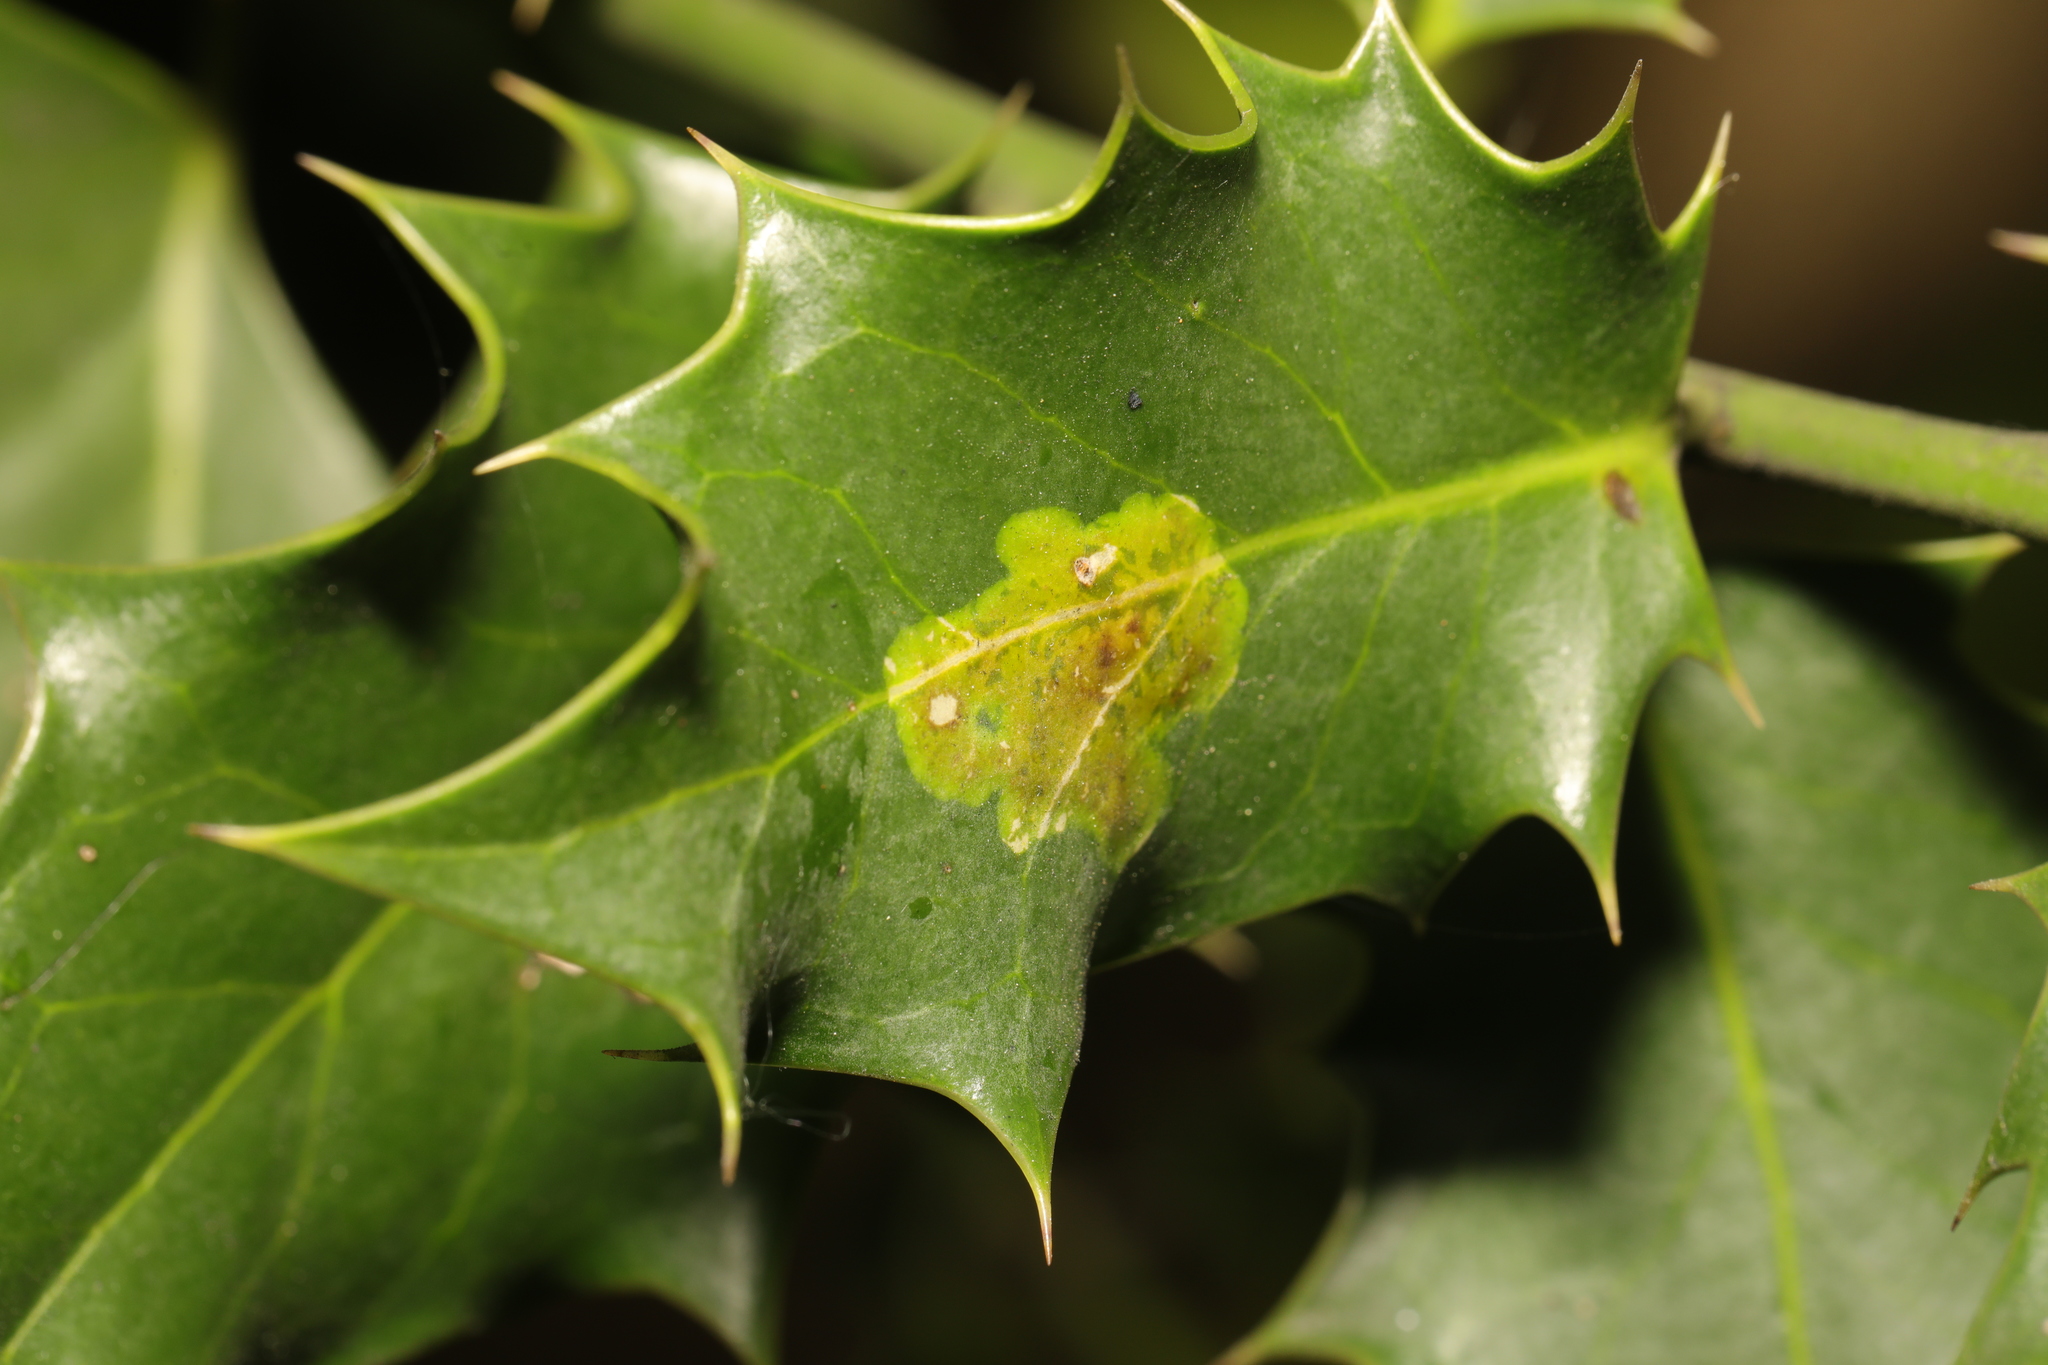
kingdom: Animalia
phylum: Arthropoda
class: Insecta
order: Diptera
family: Agromyzidae
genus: Phytomyza
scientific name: Phytomyza ilicis
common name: Holly leafminer
